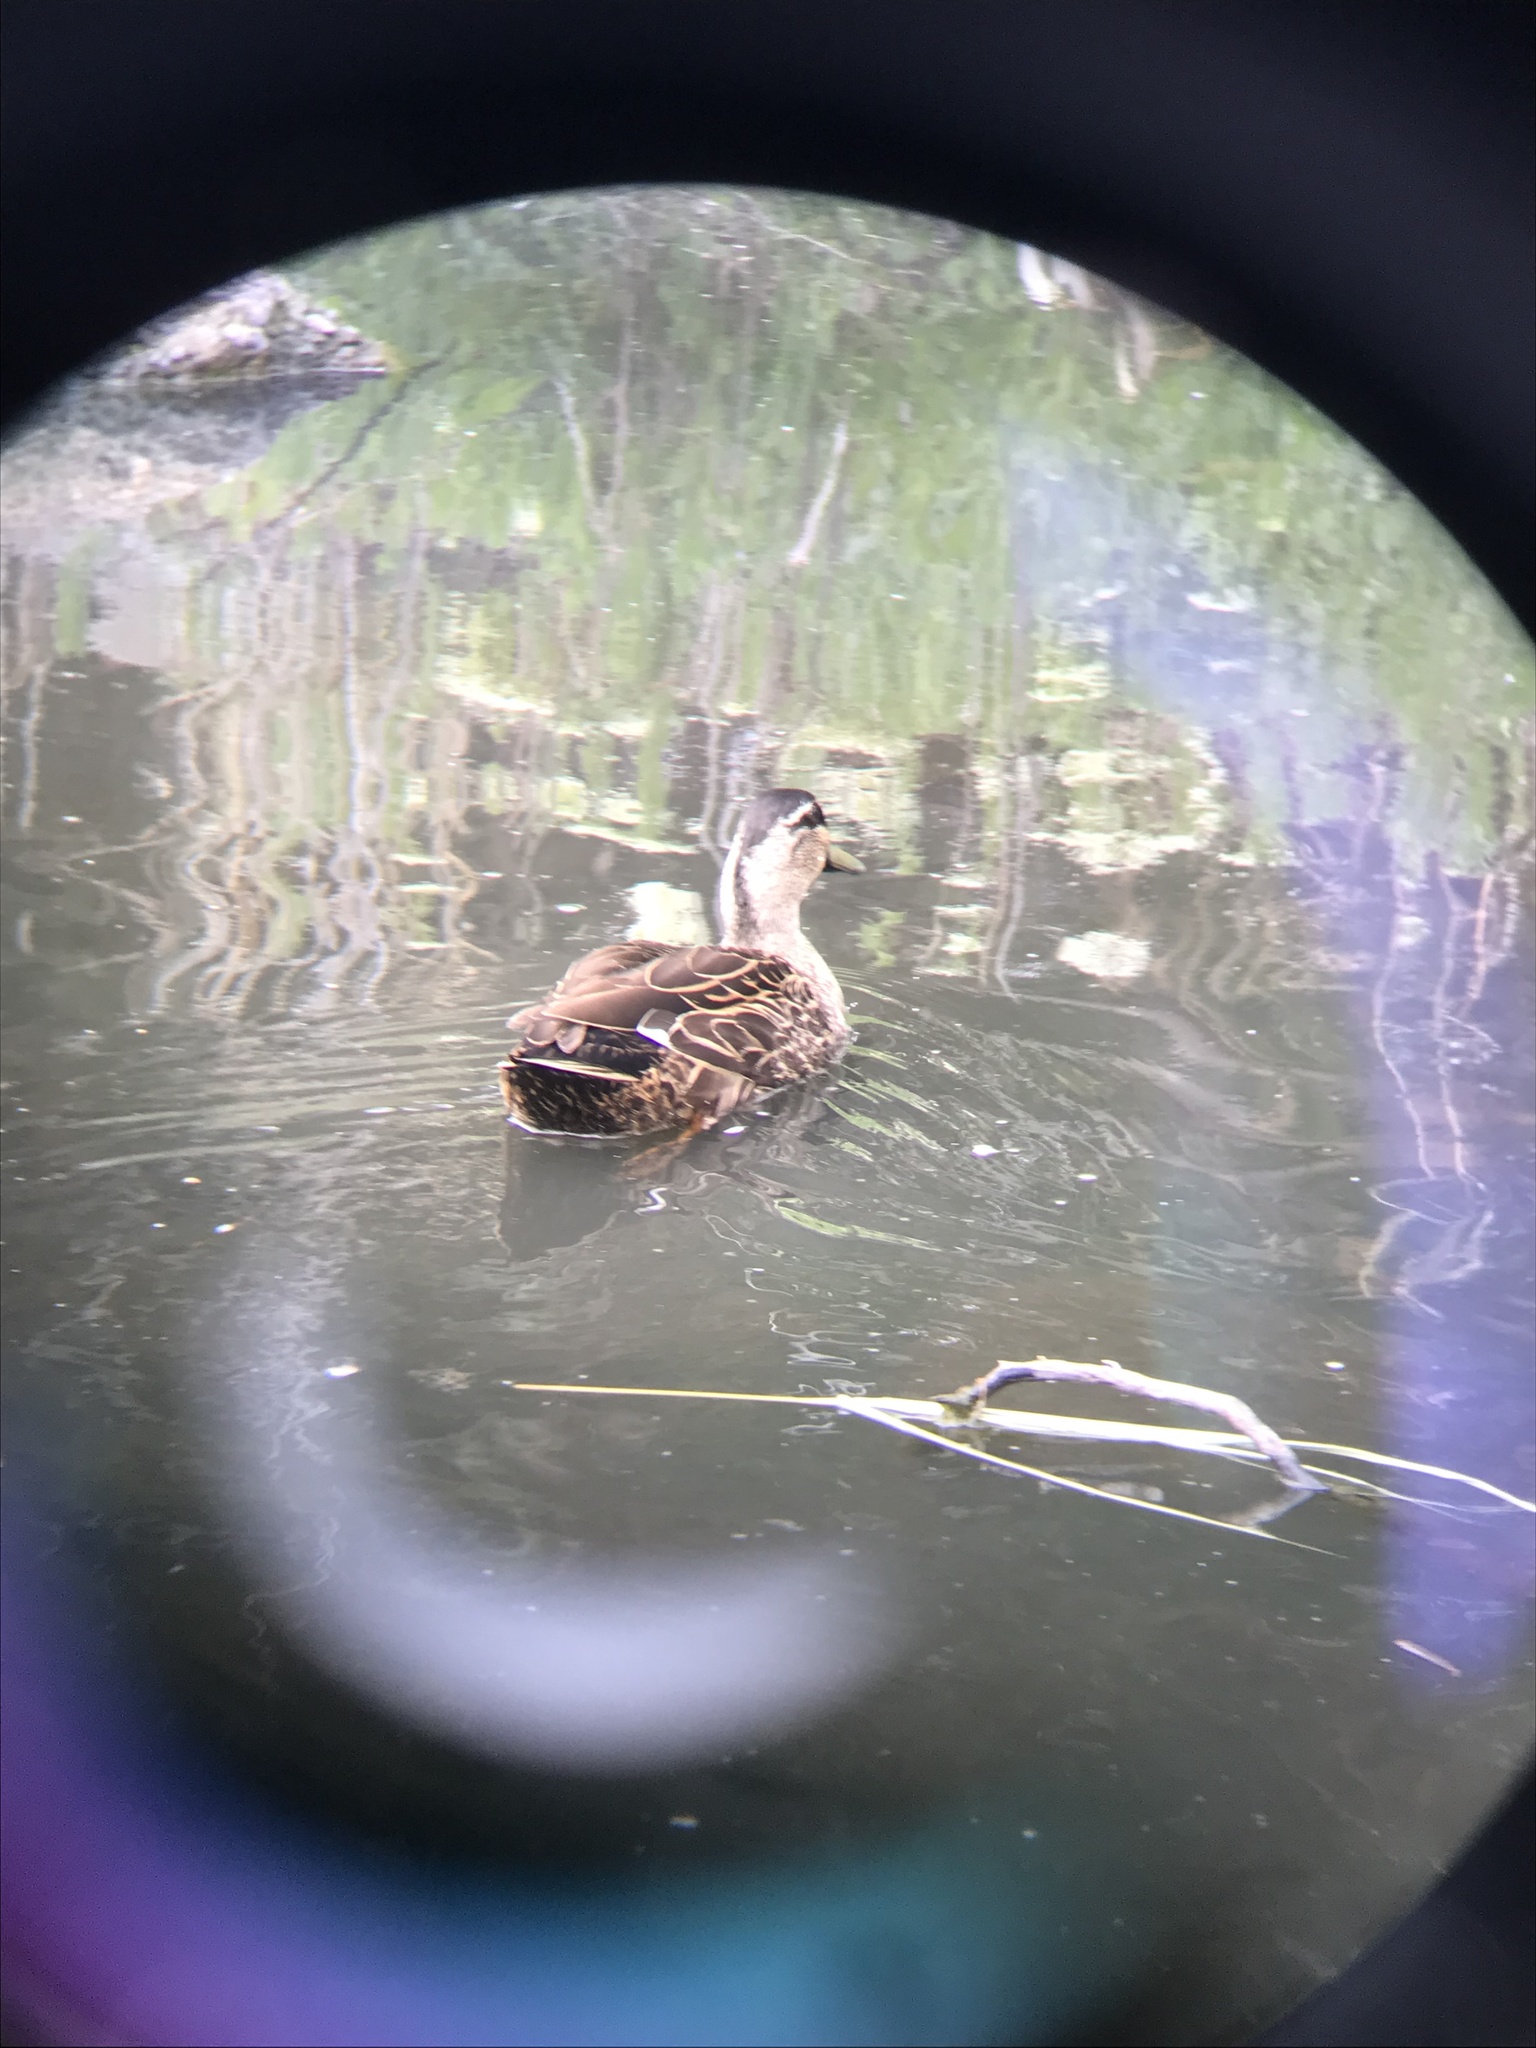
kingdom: Animalia
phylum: Chordata
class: Aves
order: Anseriformes
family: Anatidae
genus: Anas
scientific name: Anas
